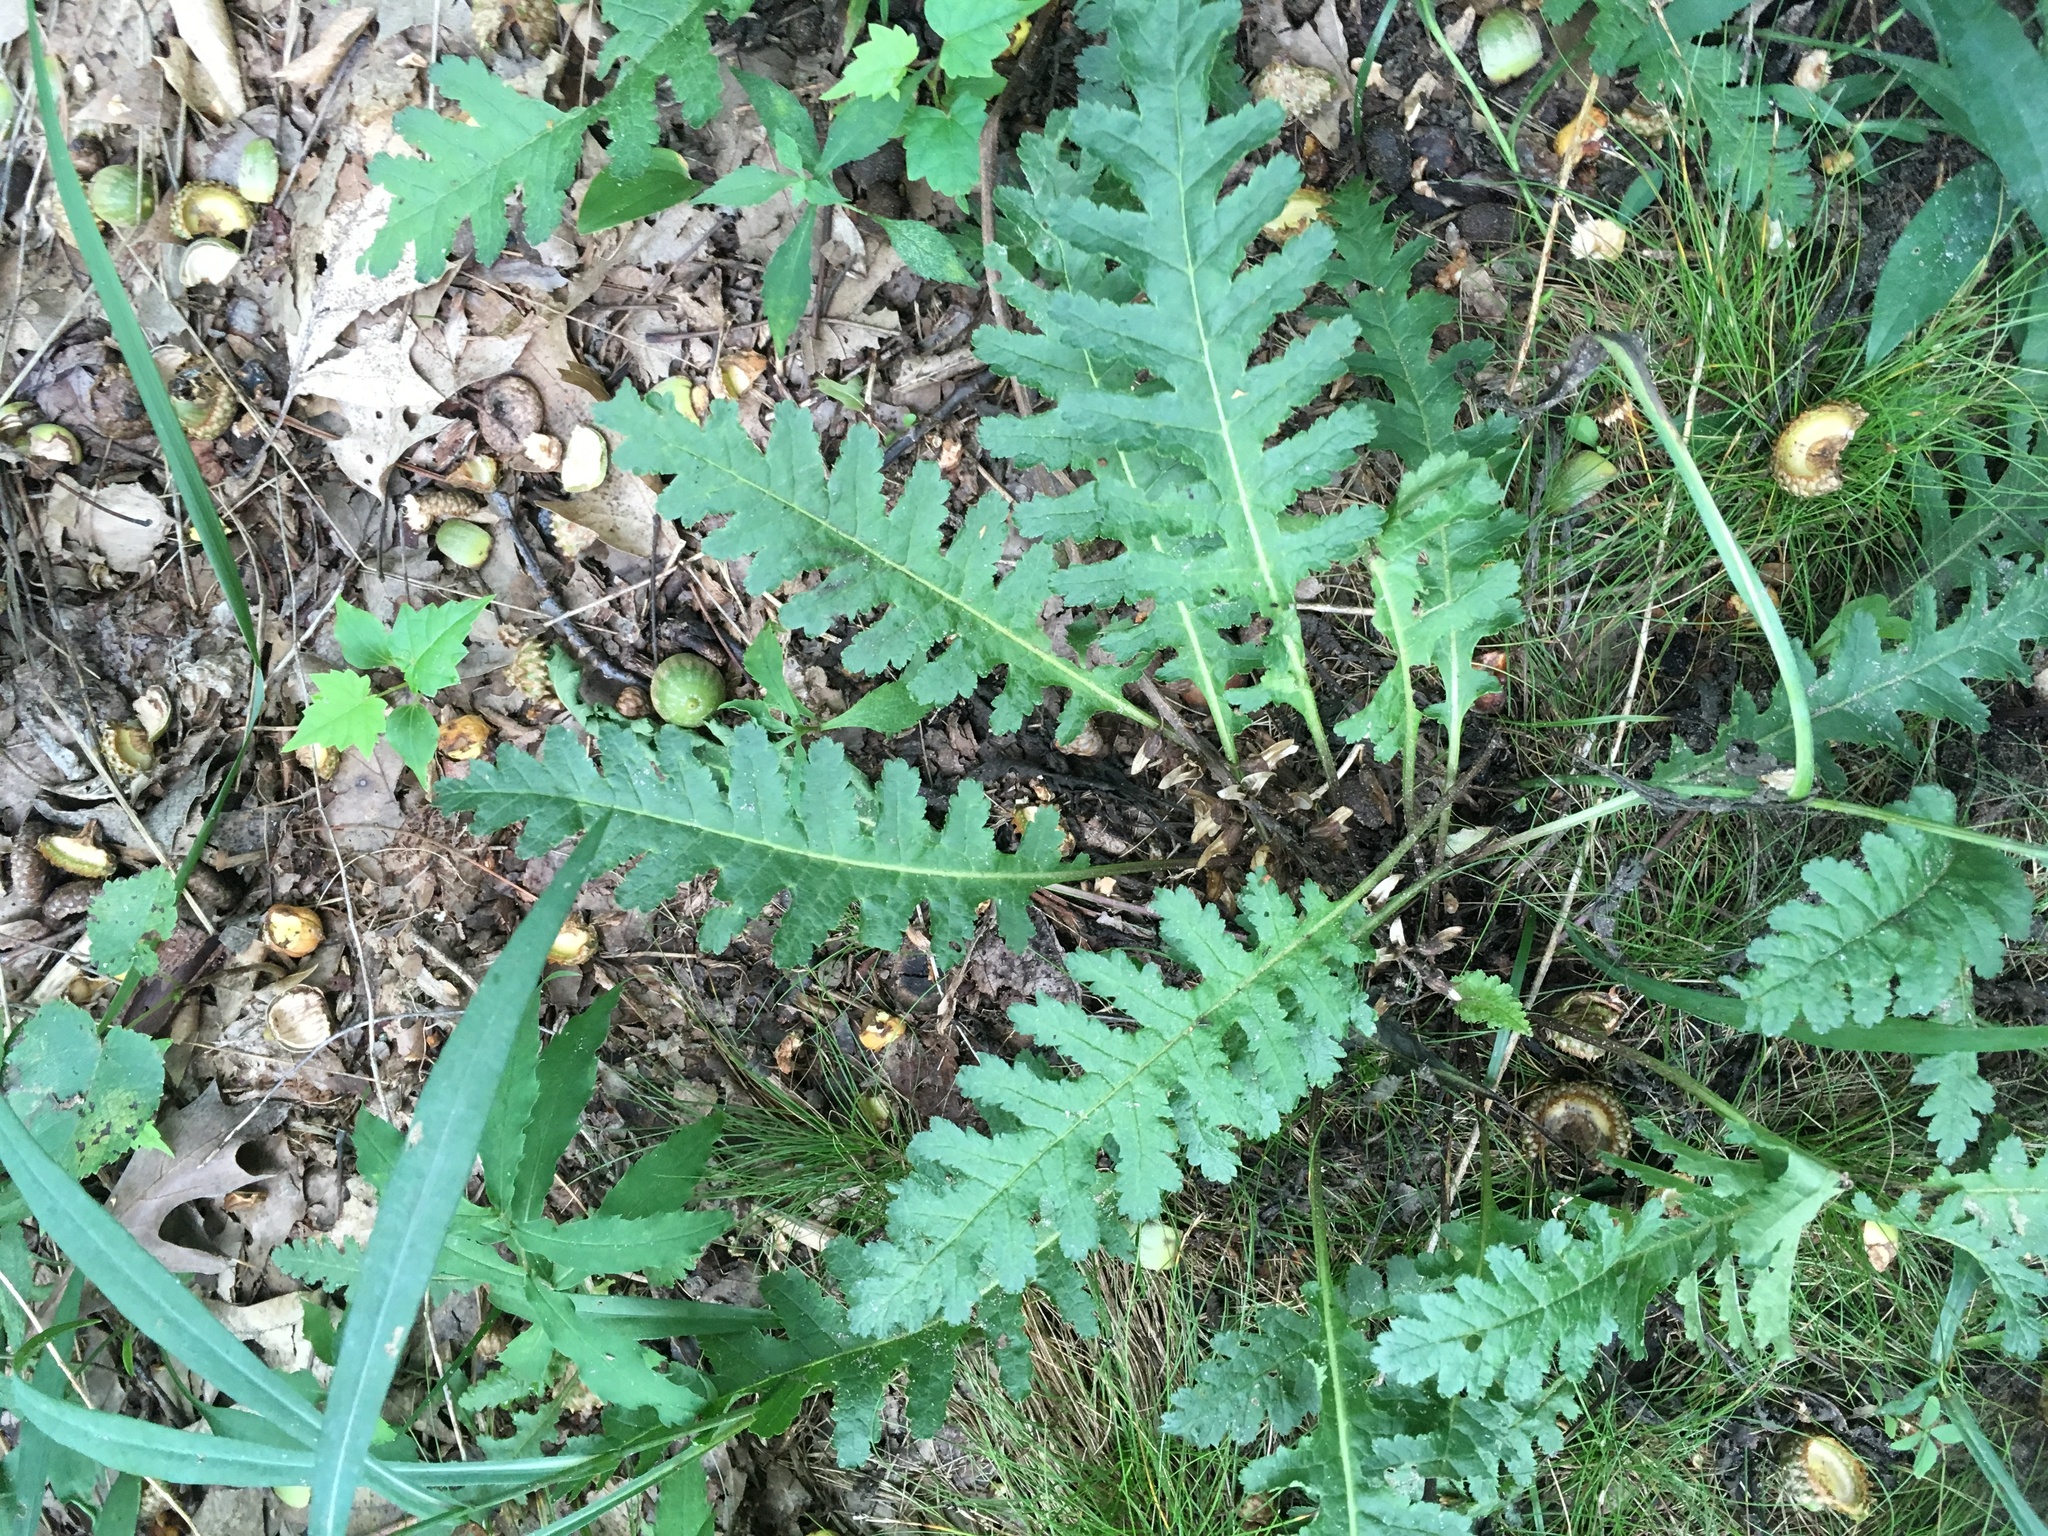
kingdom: Plantae
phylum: Tracheophyta
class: Magnoliopsida
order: Lamiales
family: Orobanchaceae
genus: Pedicularis
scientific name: Pedicularis canadensis
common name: Early lousewort
